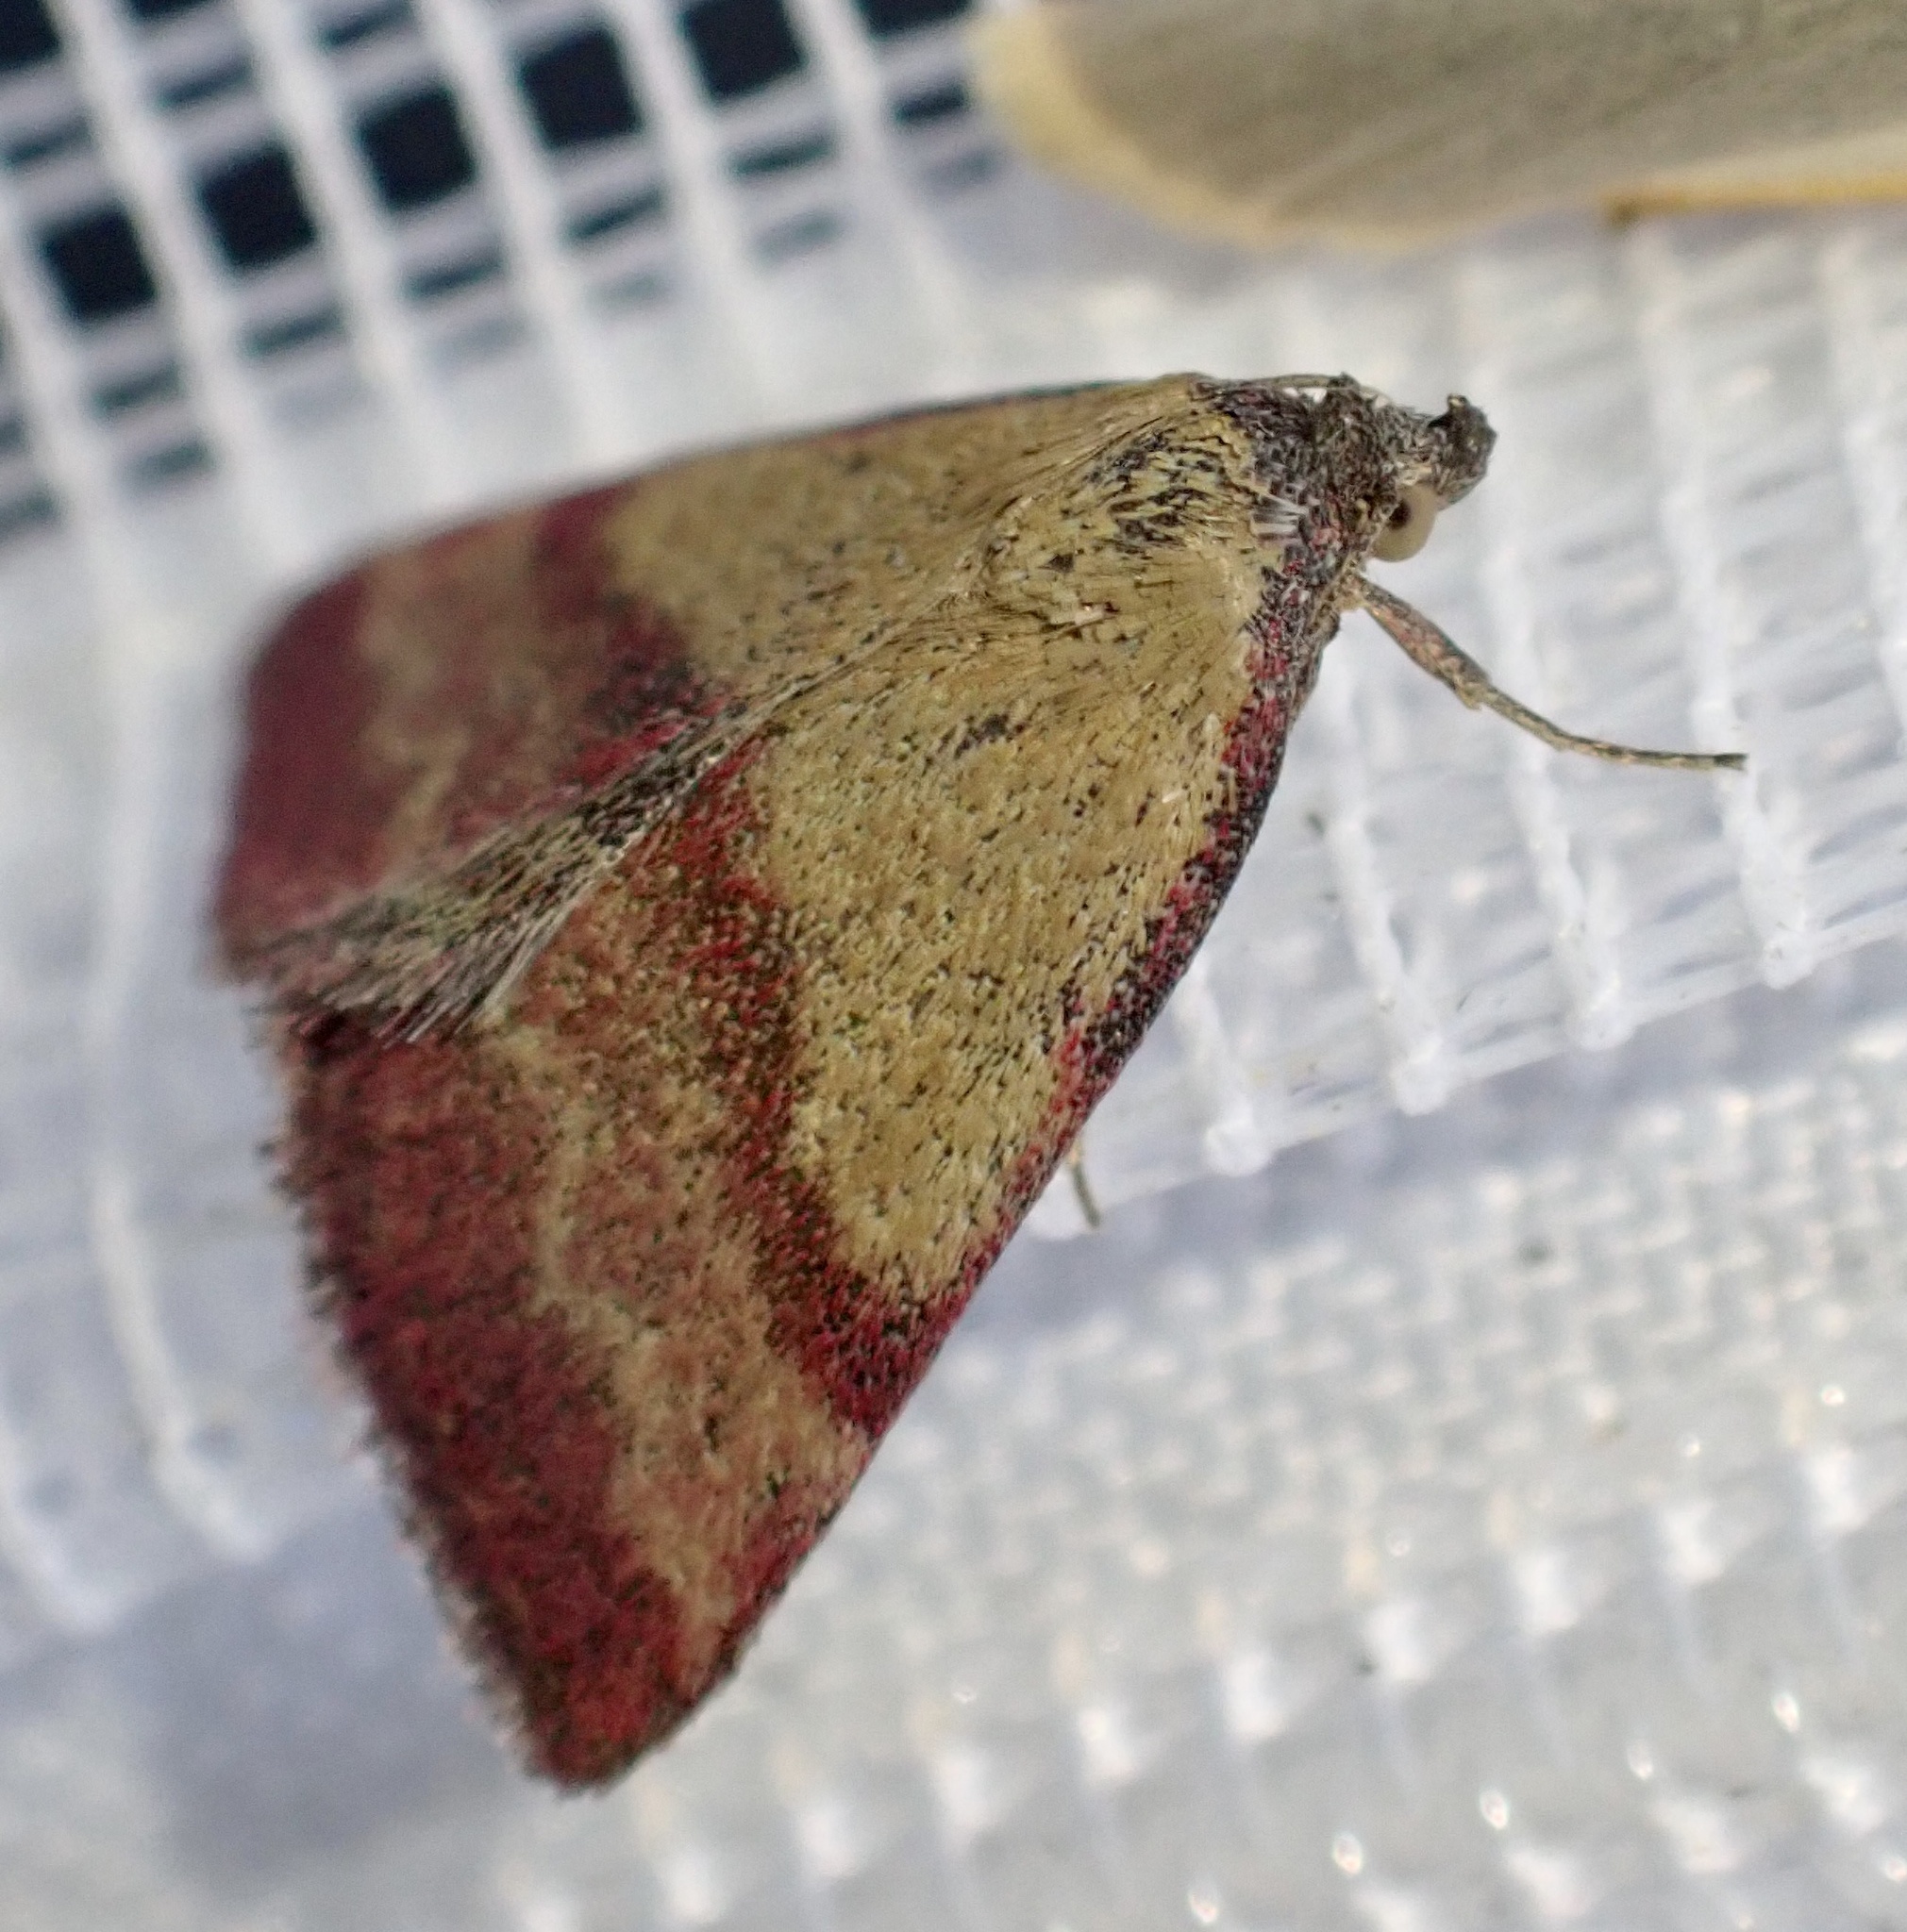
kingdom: Animalia
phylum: Arthropoda
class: Insecta
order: Lepidoptera
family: Erebidae
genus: Phytometra
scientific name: Phytometra viridaria
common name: Small purple-barred
